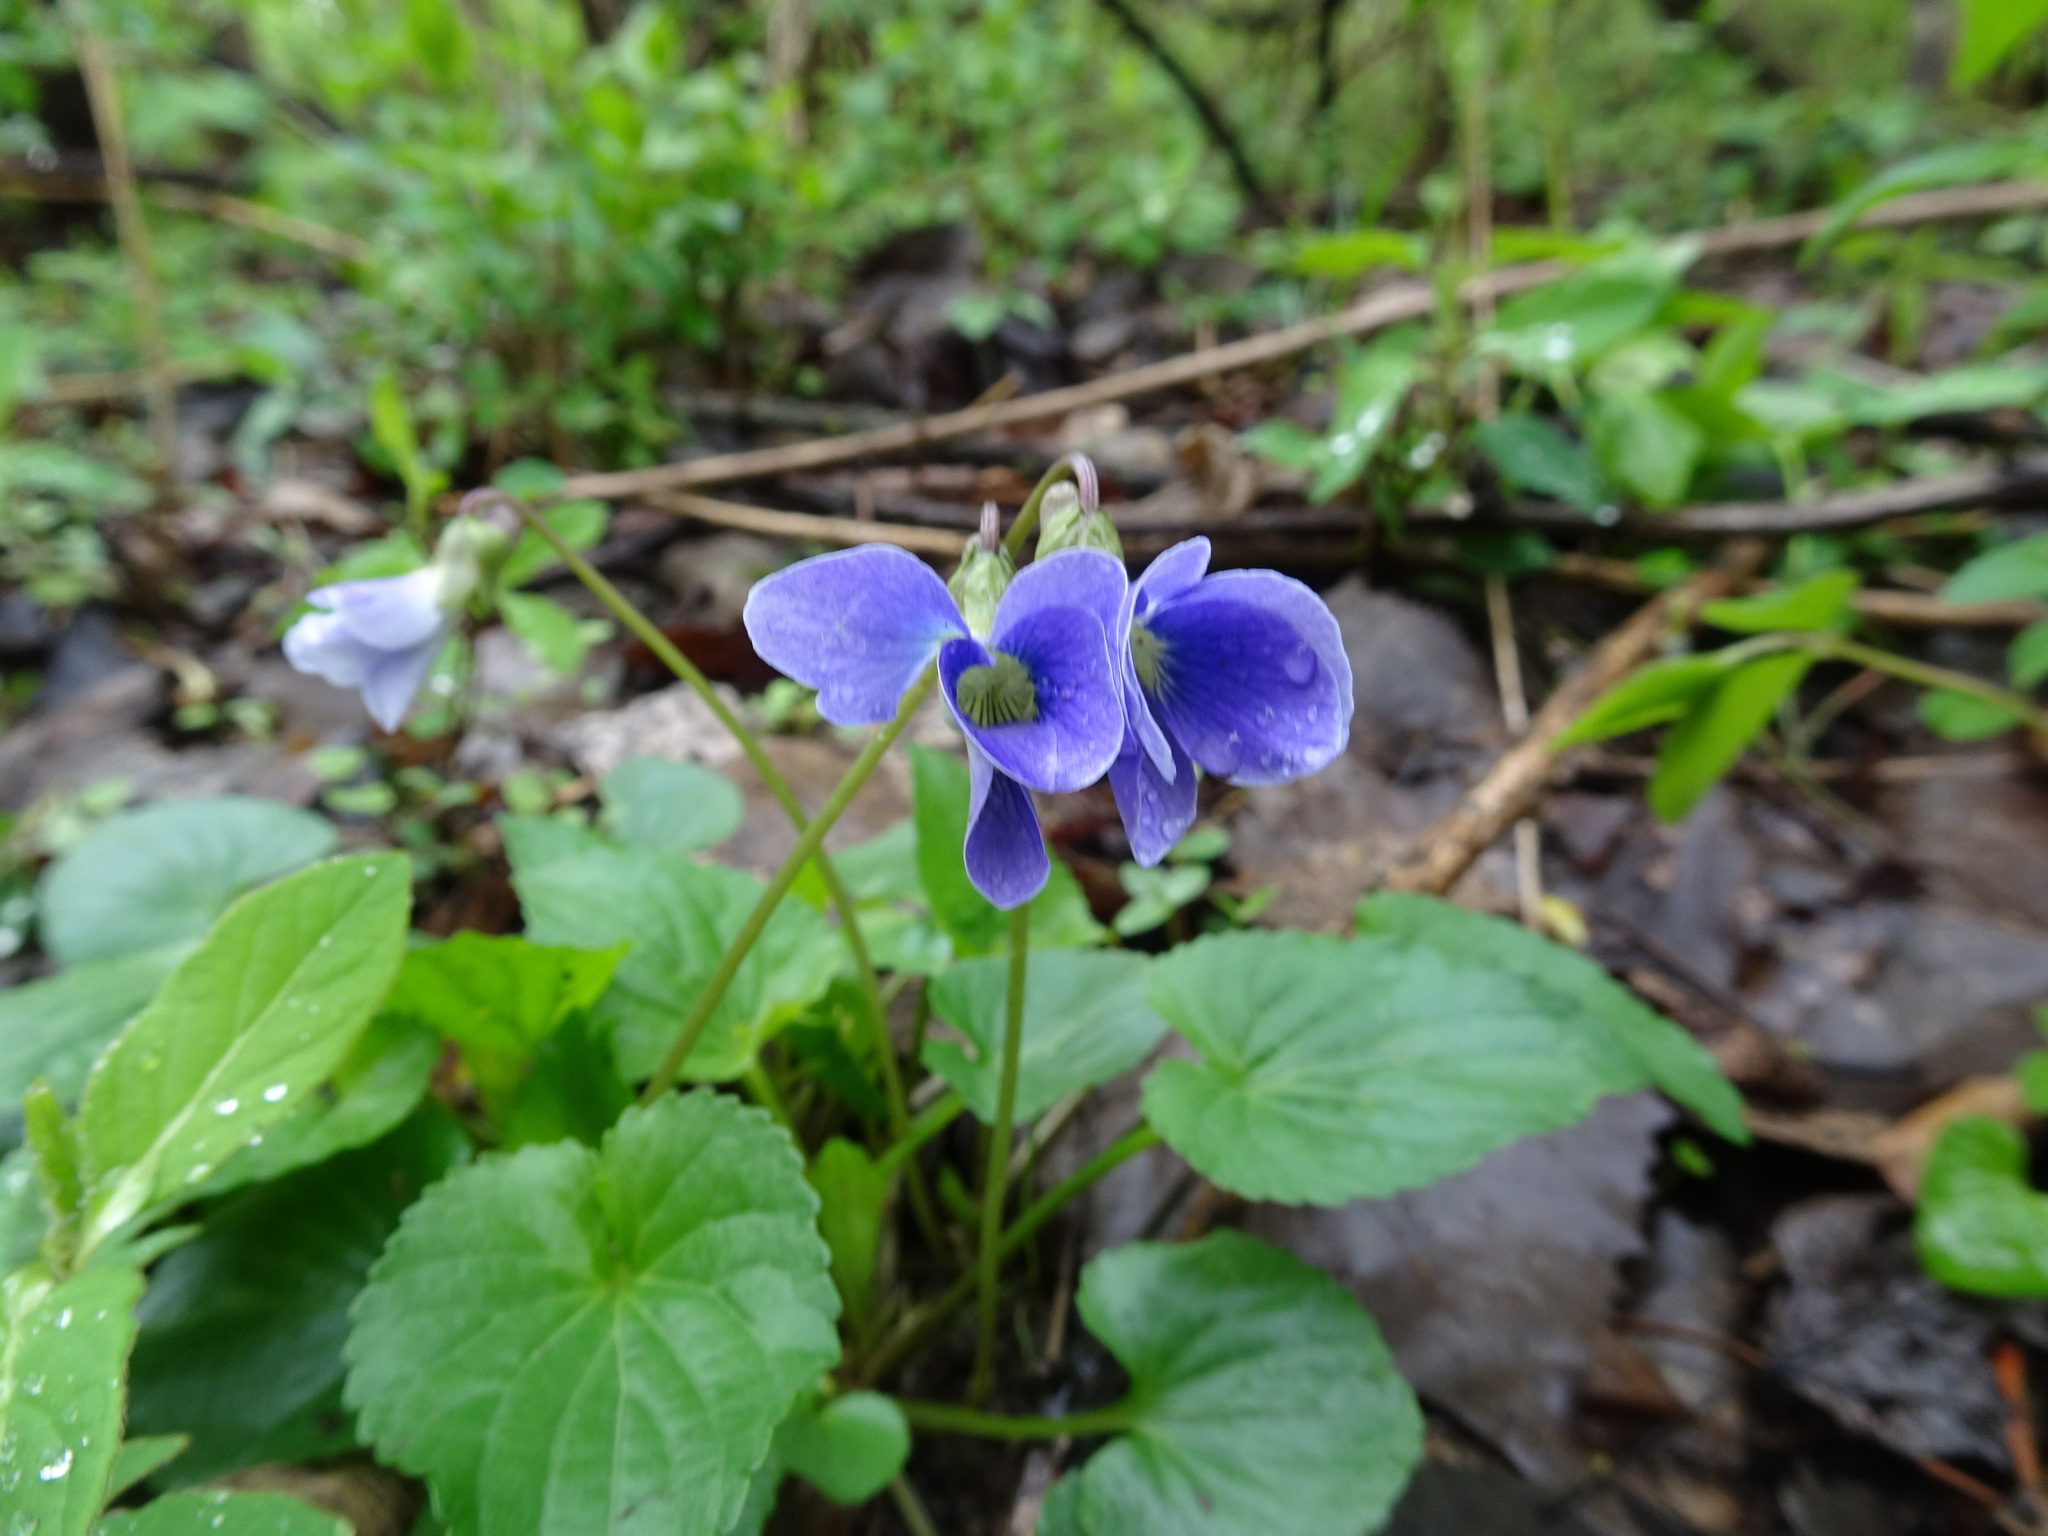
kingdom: Plantae
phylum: Tracheophyta
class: Magnoliopsida
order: Malpighiales
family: Violaceae
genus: Viola
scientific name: Viola sororia
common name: Dooryard violet
